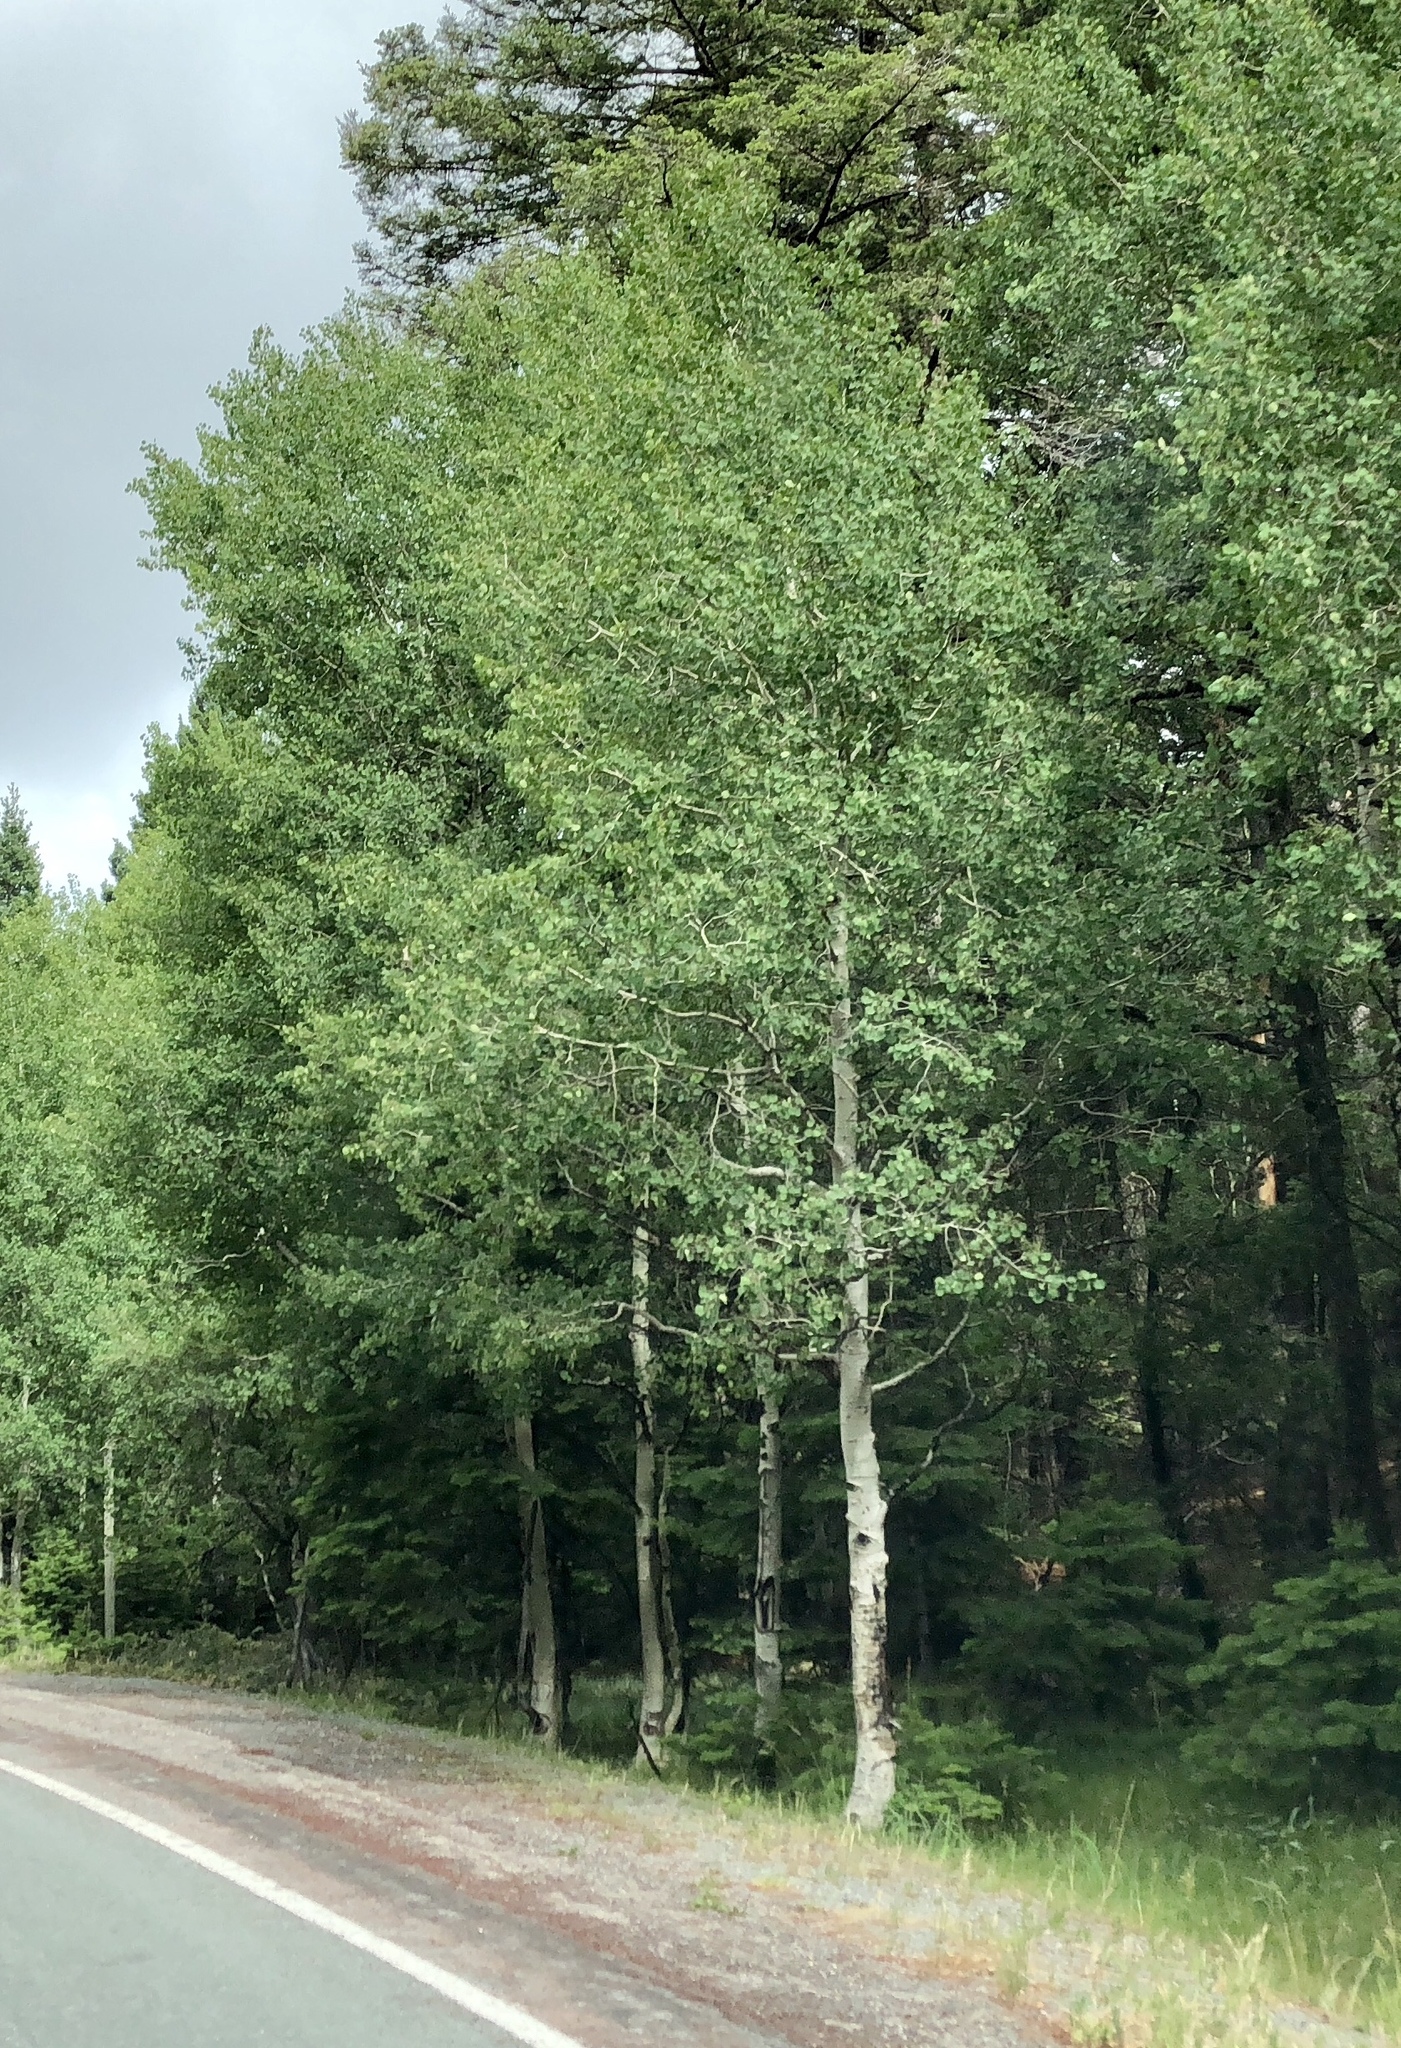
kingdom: Plantae
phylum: Tracheophyta
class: Magnoliopsida
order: Malpighiales
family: Salicaceae
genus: Populus
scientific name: Populus tremuloides
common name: Quaking aspen
